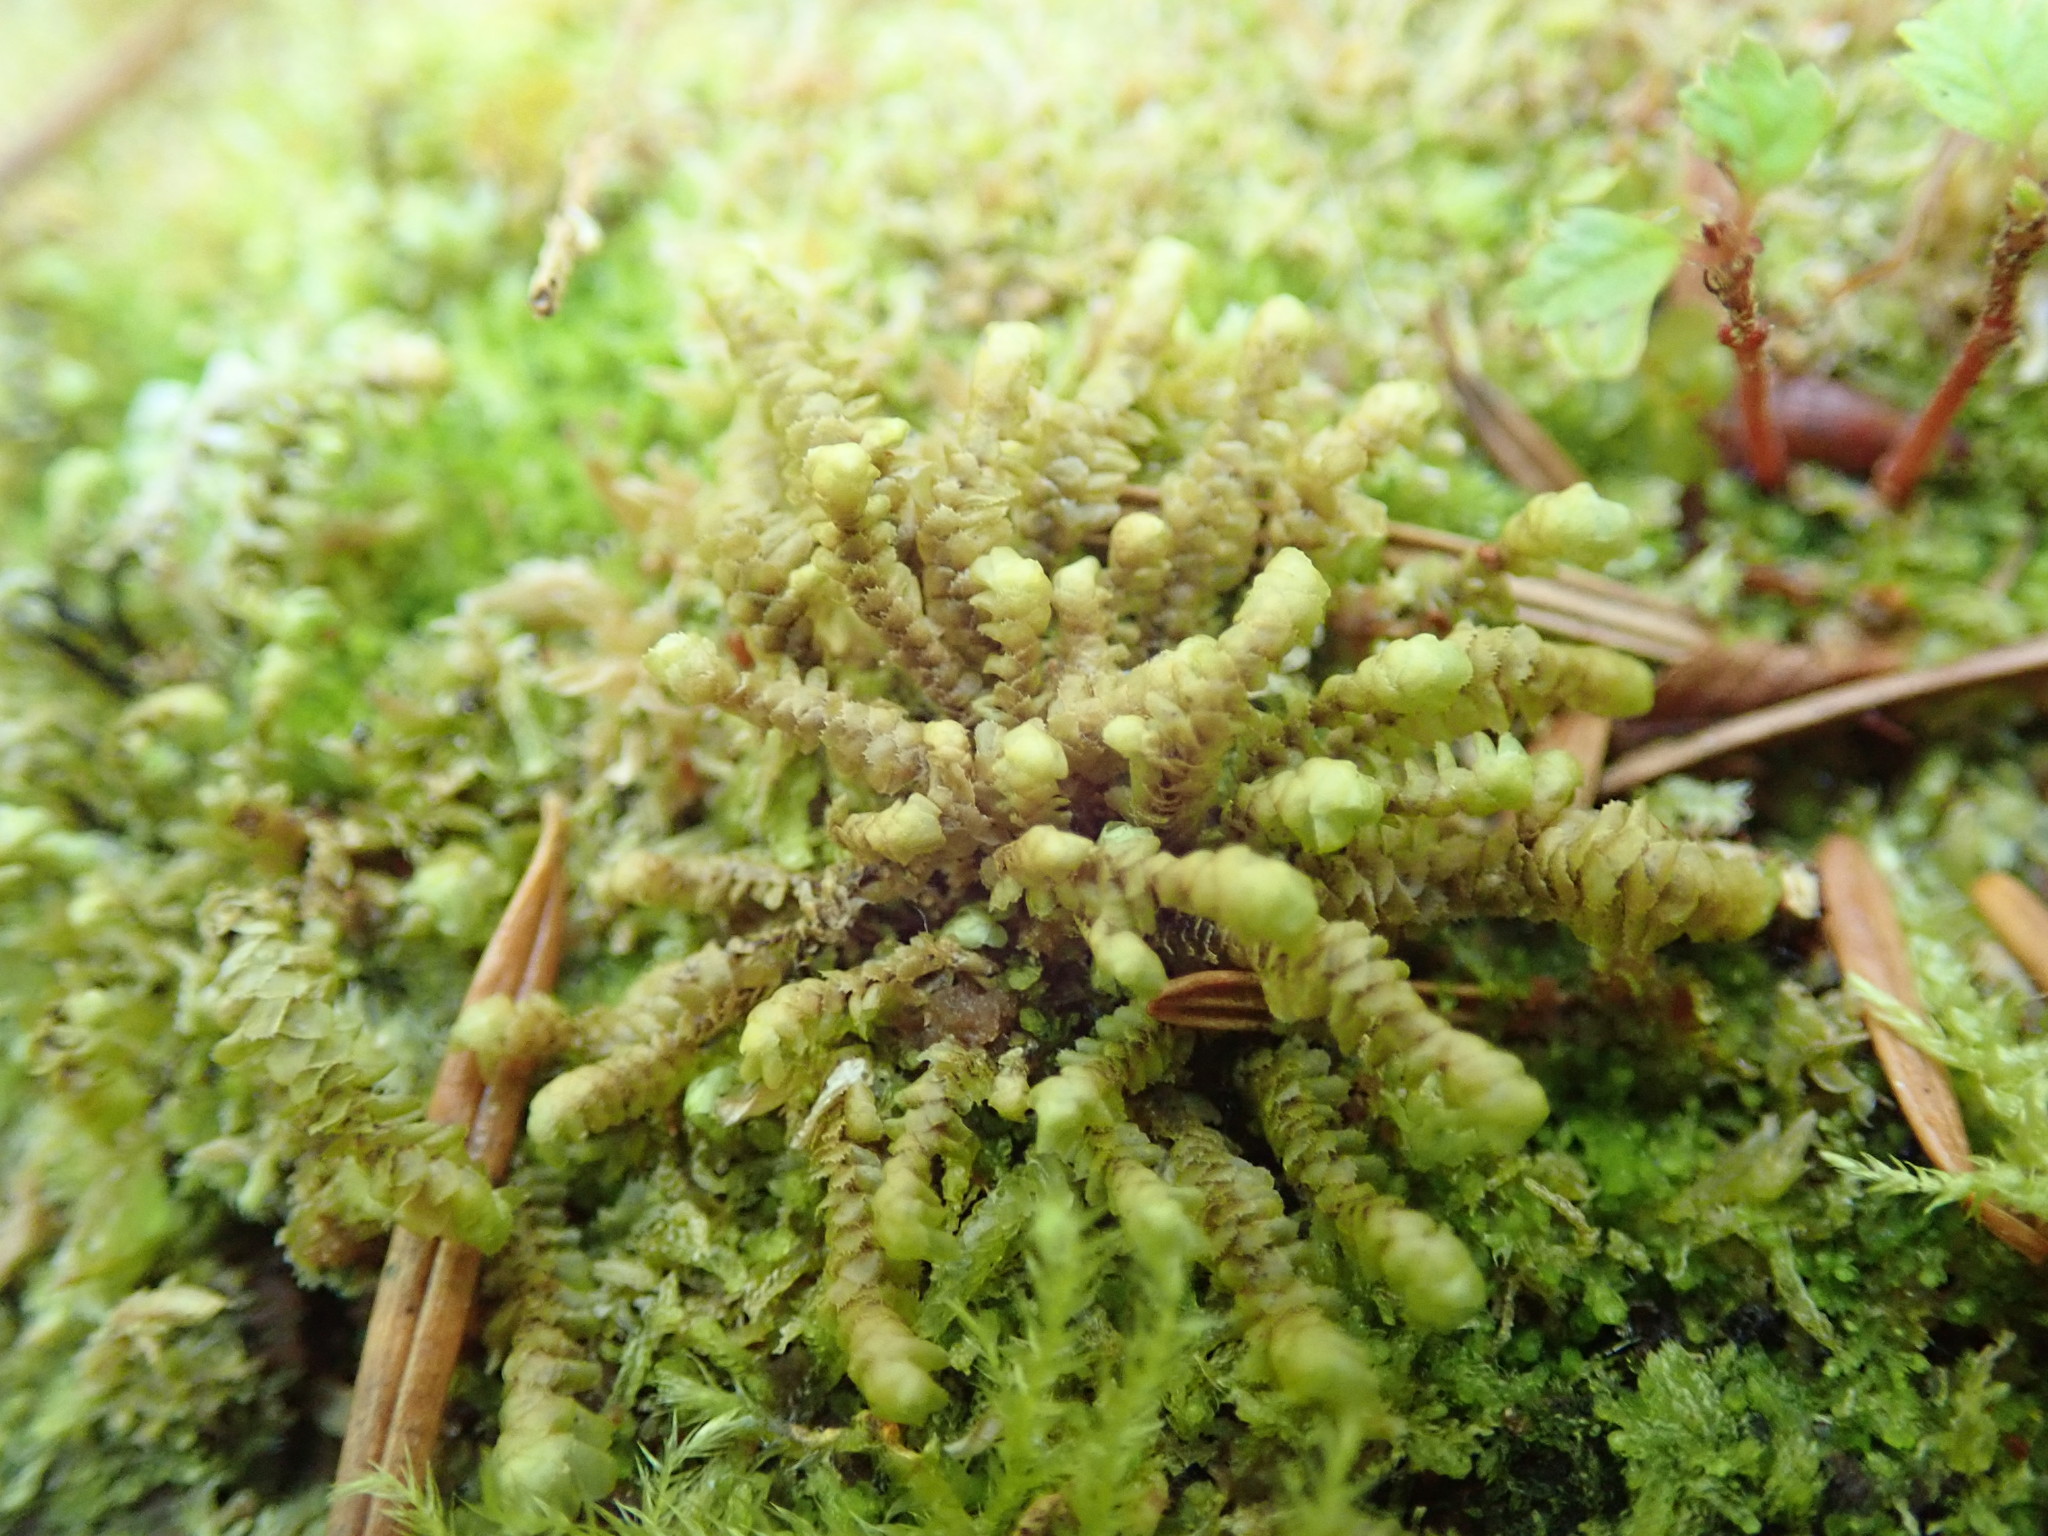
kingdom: Plantae
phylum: Marchantiophyta
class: Jungermanniopsida
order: Jungermanniales
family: Scapaniaceae
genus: Scapania
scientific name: Scapania bolanderi
